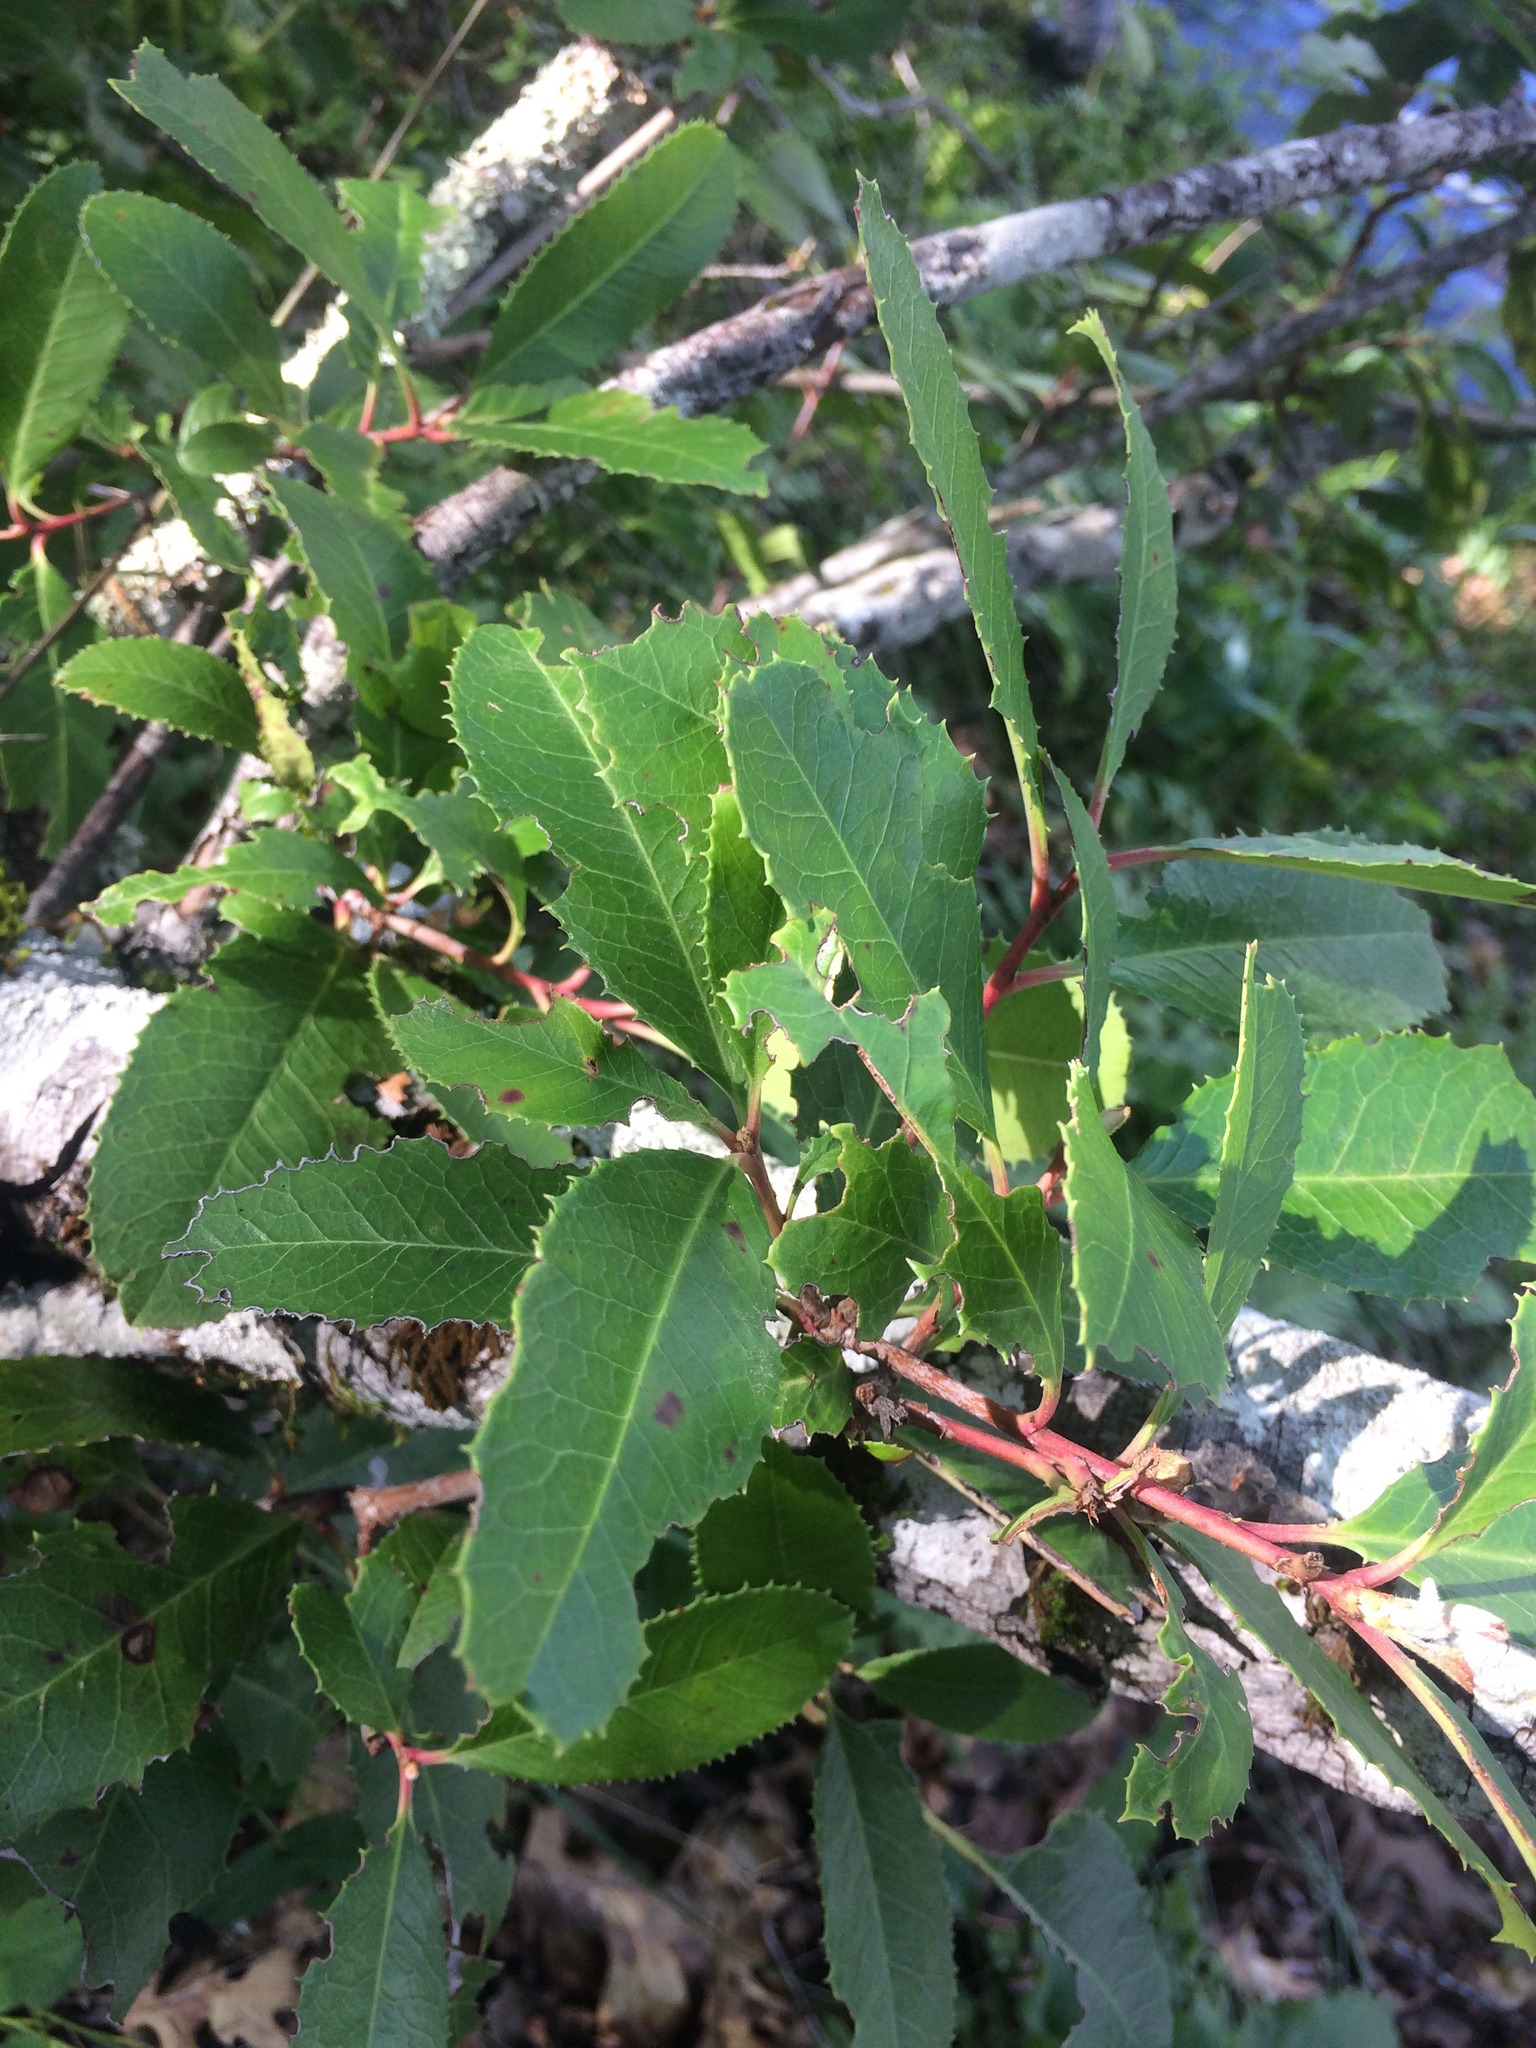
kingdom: Plantae
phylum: Tracheophyta
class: Magnoliopsida
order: Rosales
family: Rosaceae
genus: Heteromeles
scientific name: Heteromeles arbutifolia
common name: California-holly
